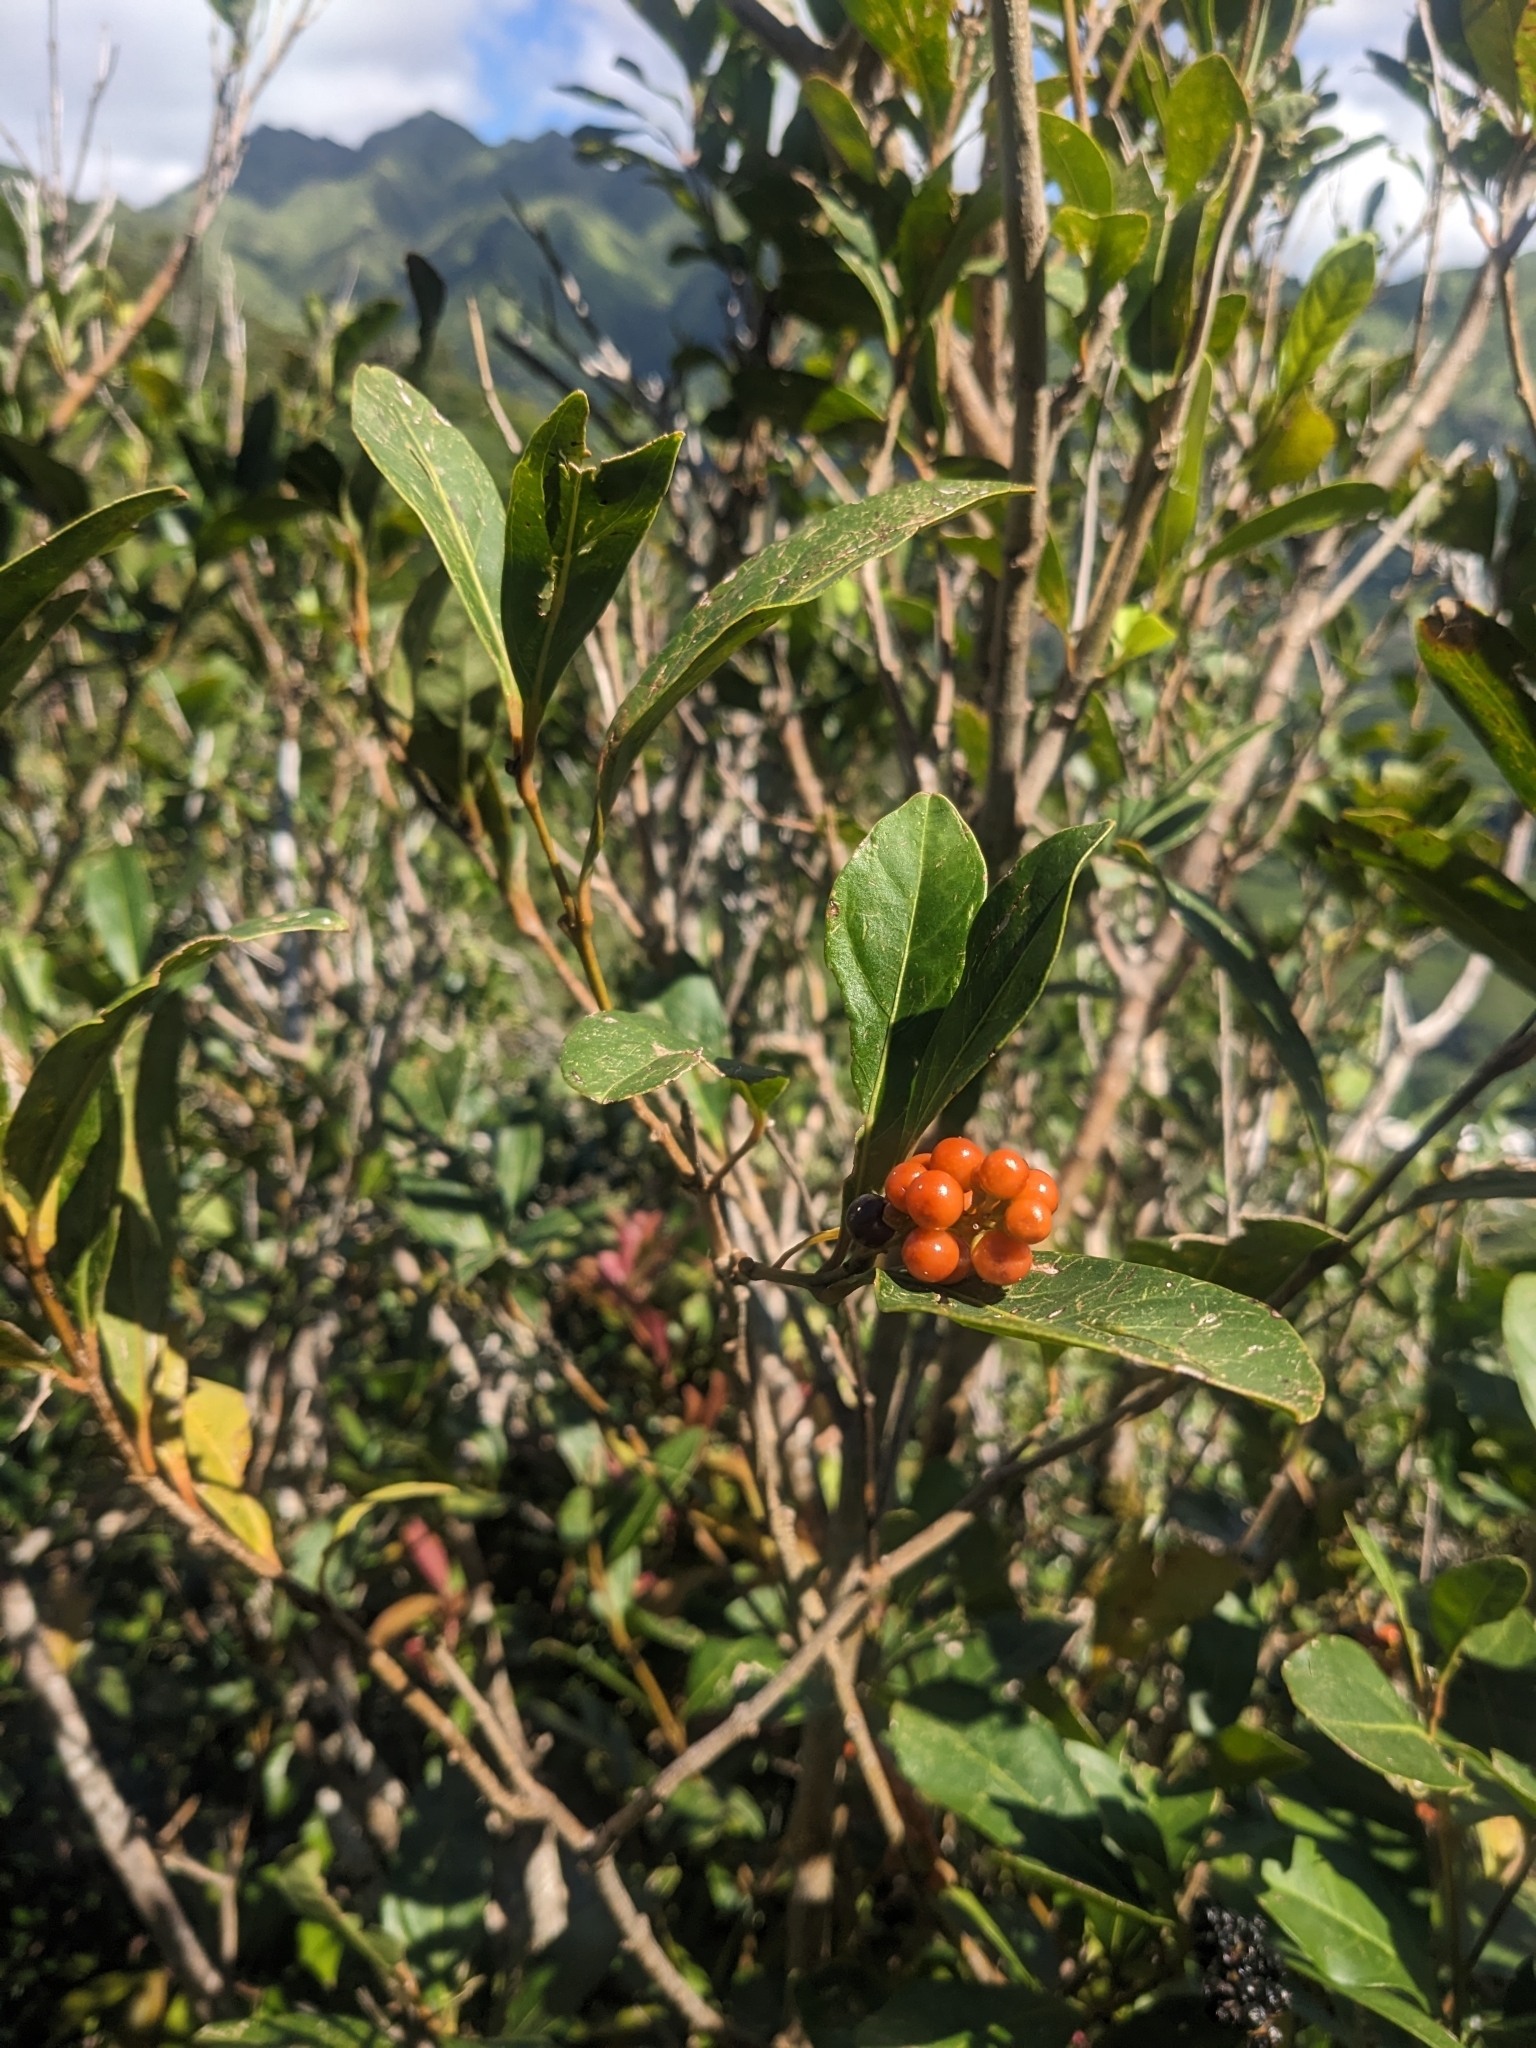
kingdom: Plantae
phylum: Tracheophyta
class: Magnoliopsida
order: Lamiales
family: Verbenaceae
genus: Citharexylum
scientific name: Citharexylum caudatum
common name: Fiddlewood
